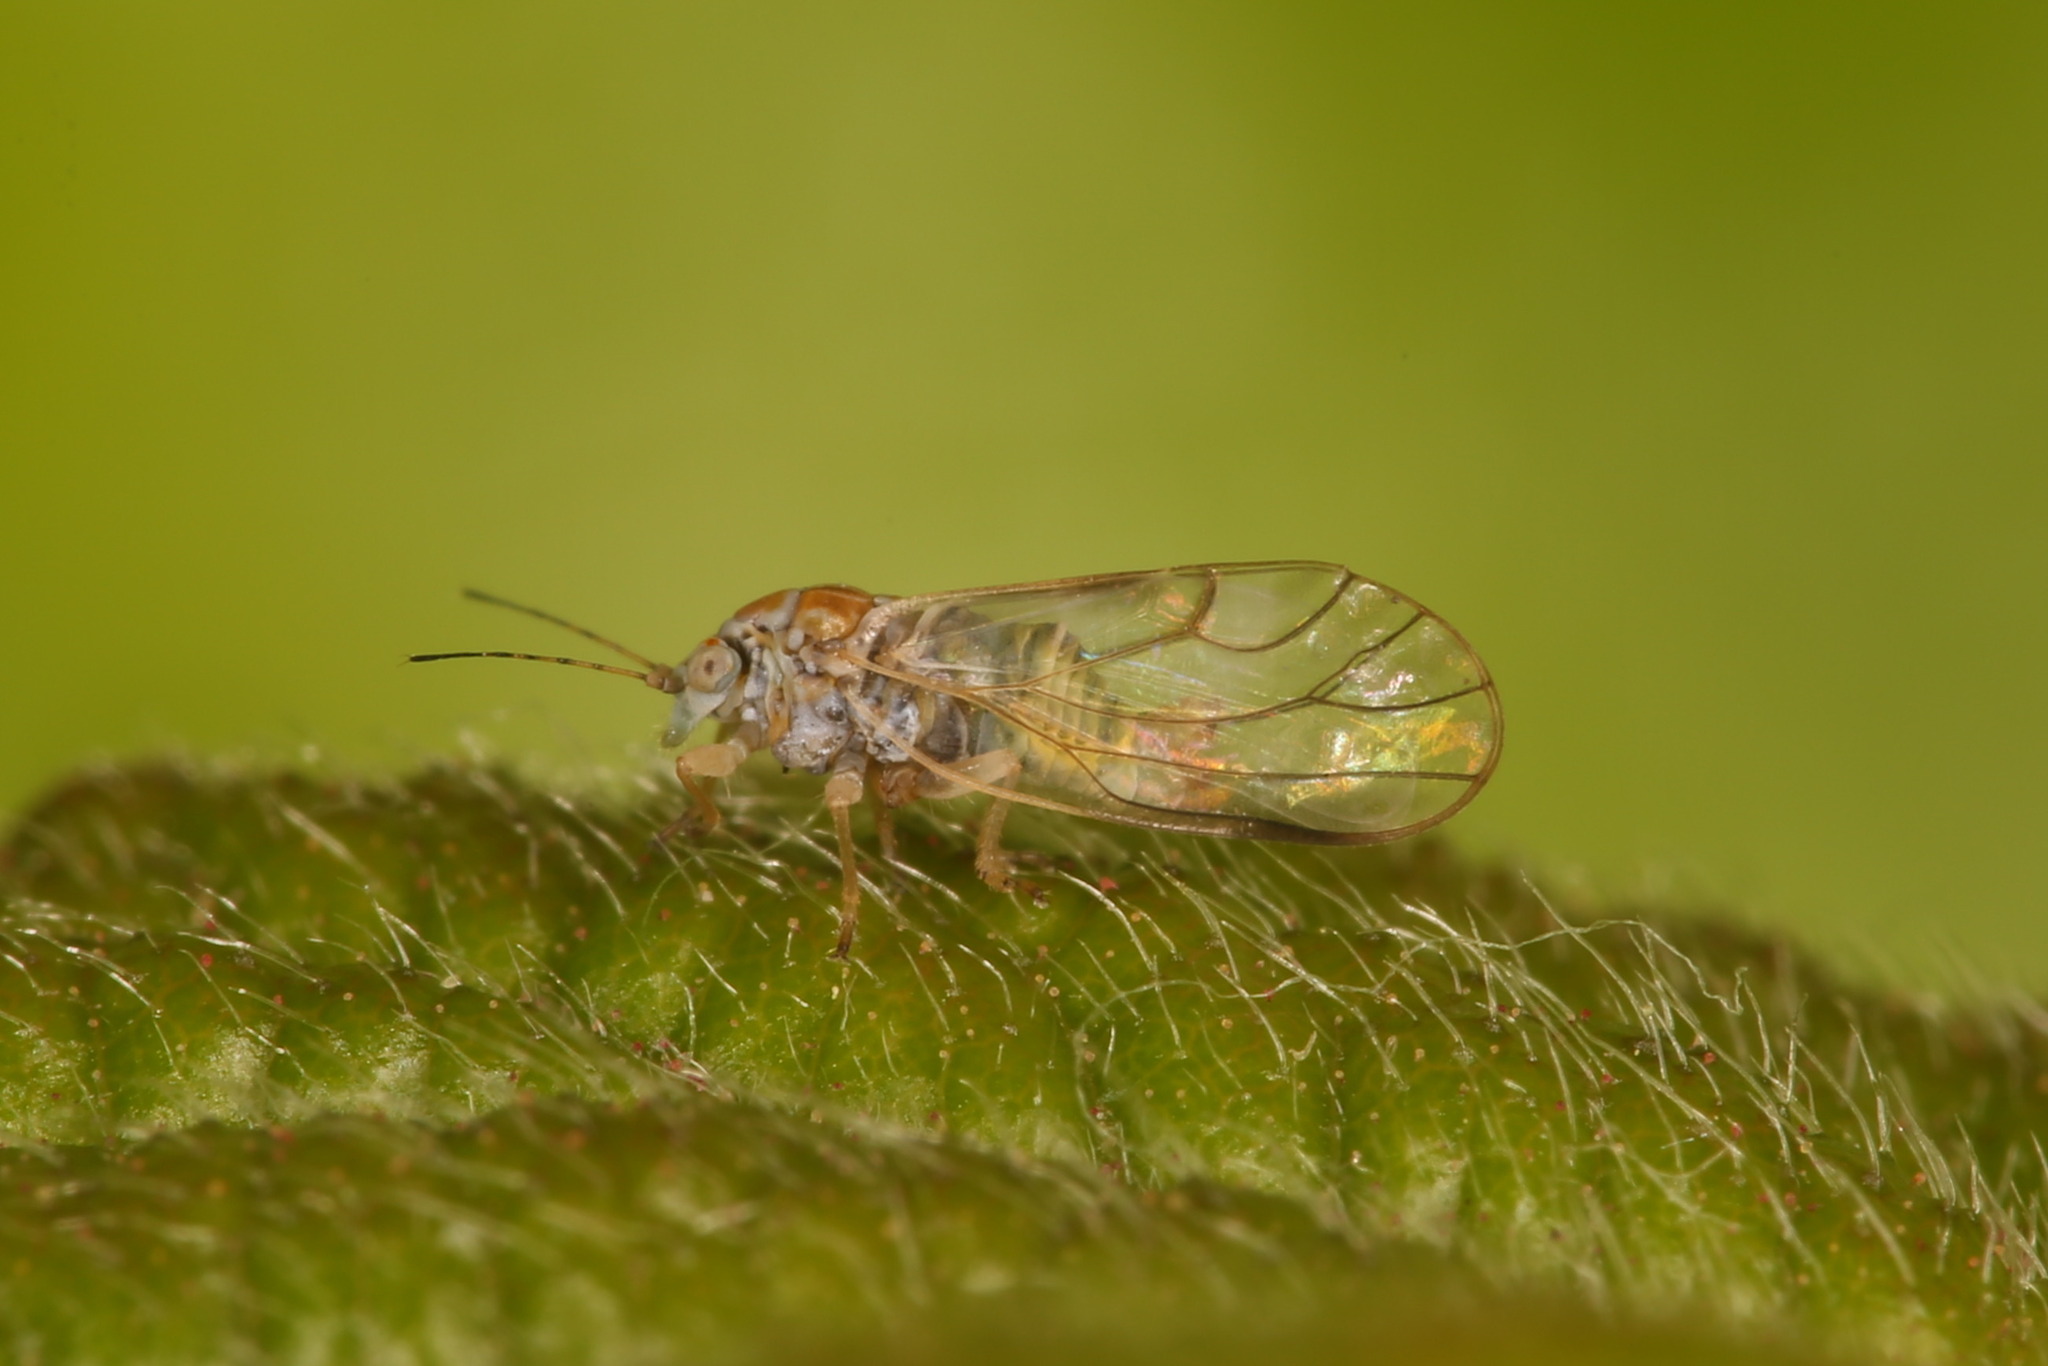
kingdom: Animalia
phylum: Arthropoda
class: Insecta
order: Hemiptera
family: Psyllidae
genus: Cacopsylla
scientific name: Cacopsylla iteophila
